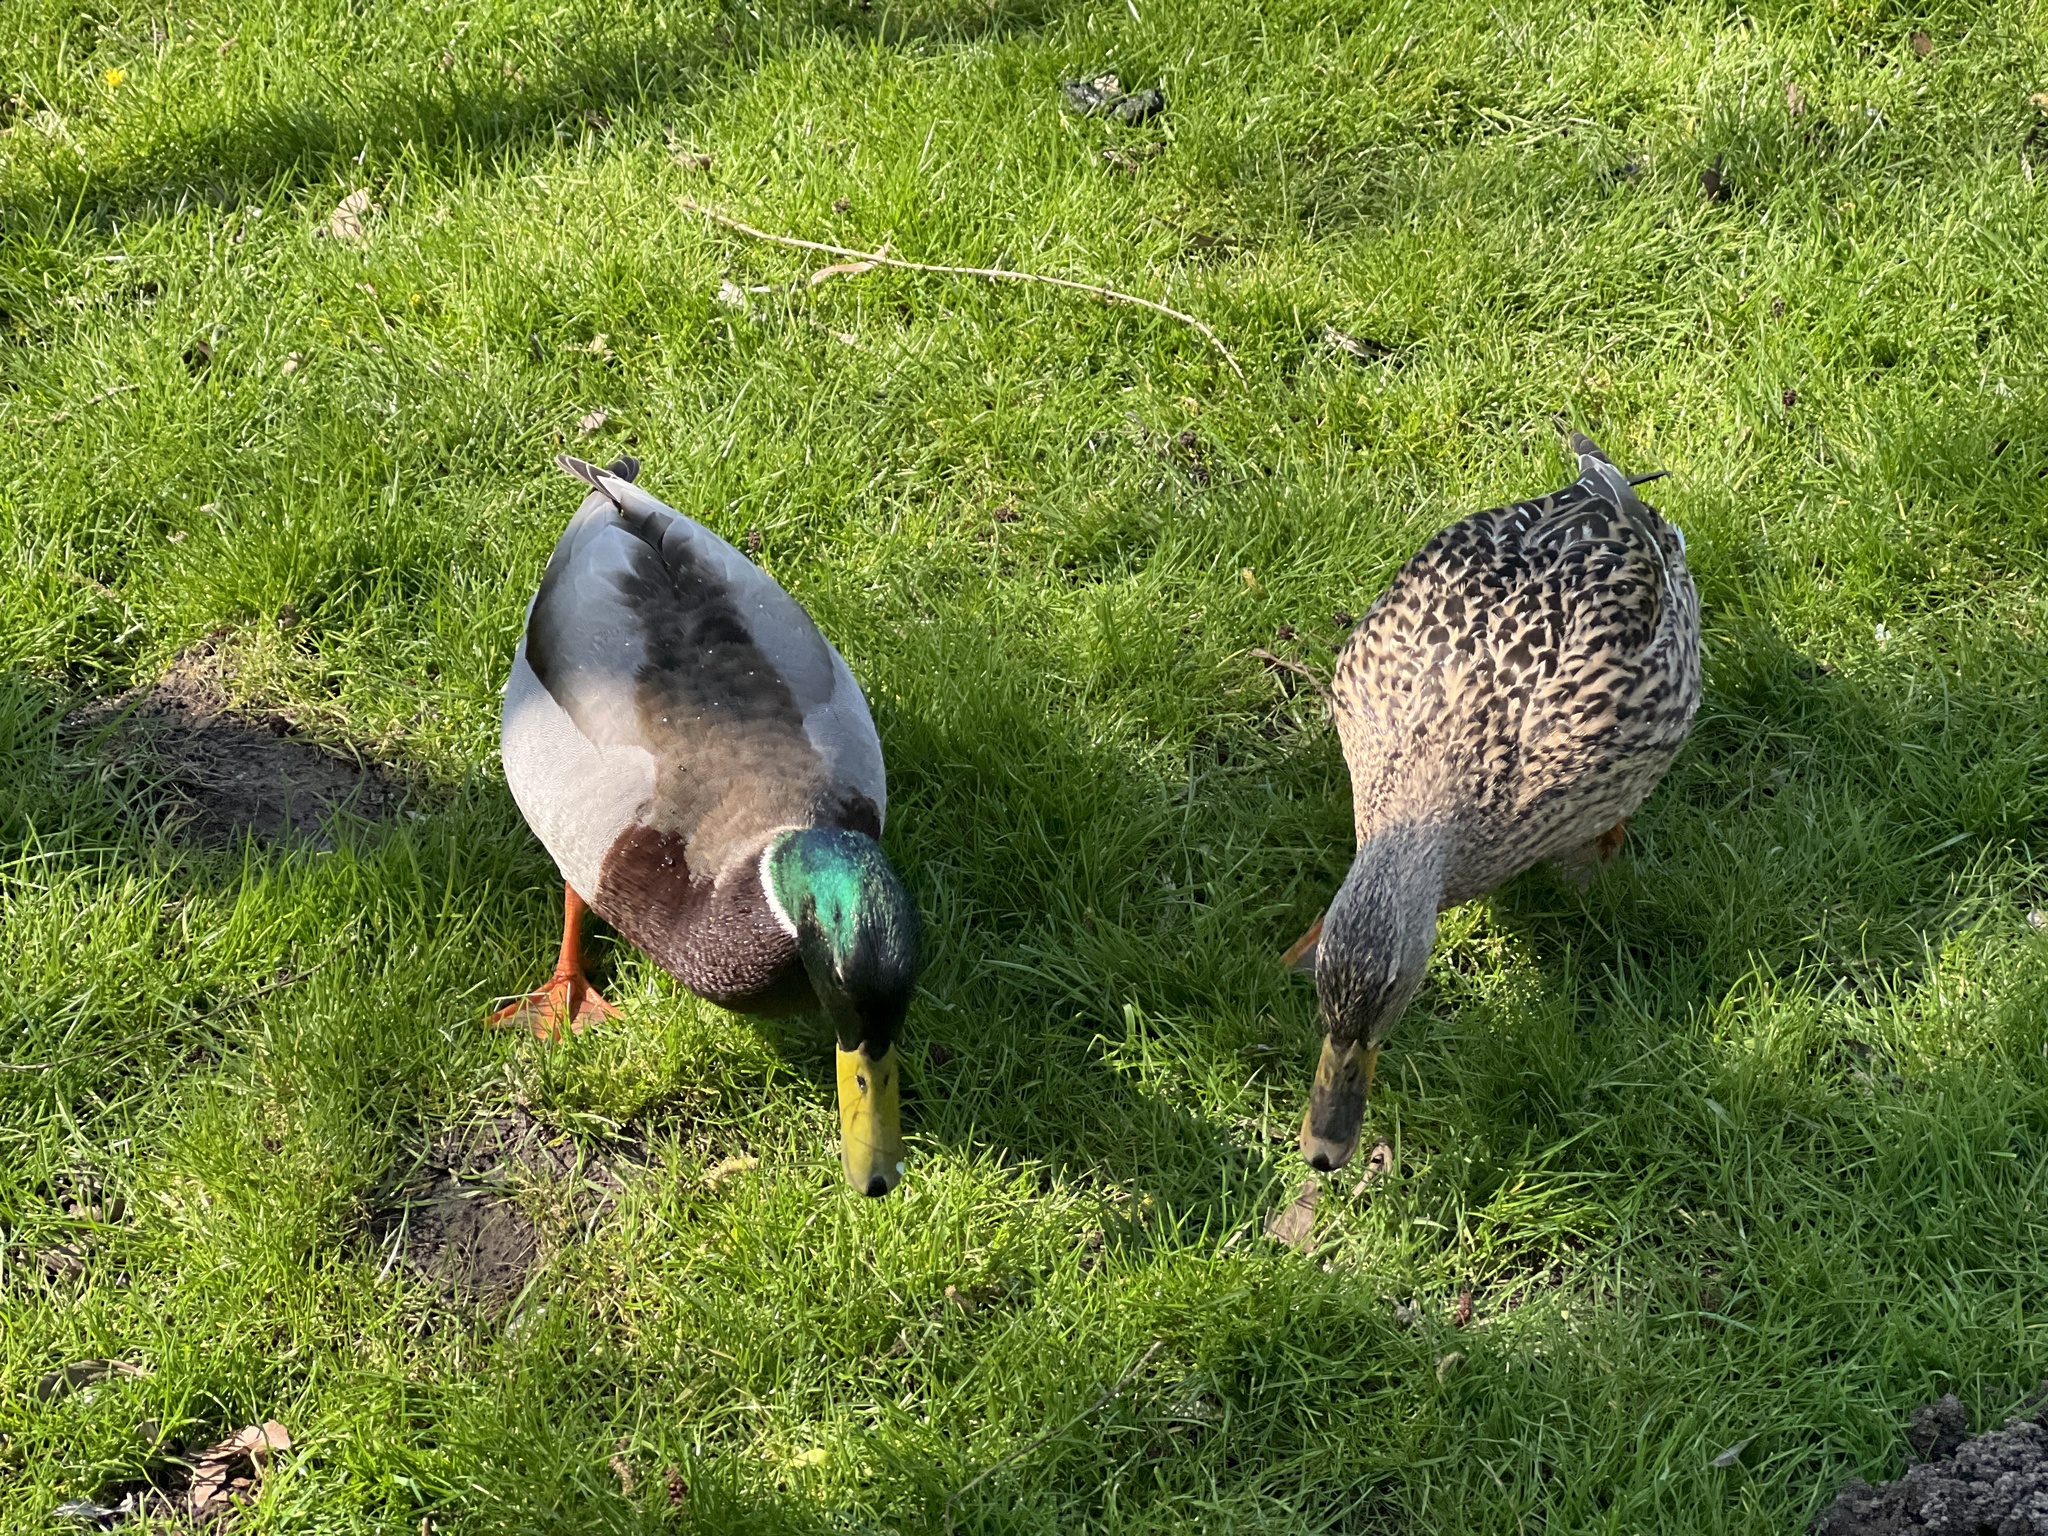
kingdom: Animalia
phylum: Chordata
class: Aves
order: Anseriformes
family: Anatidae
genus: Anas
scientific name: Anas platyrhynchos
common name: Mallard
